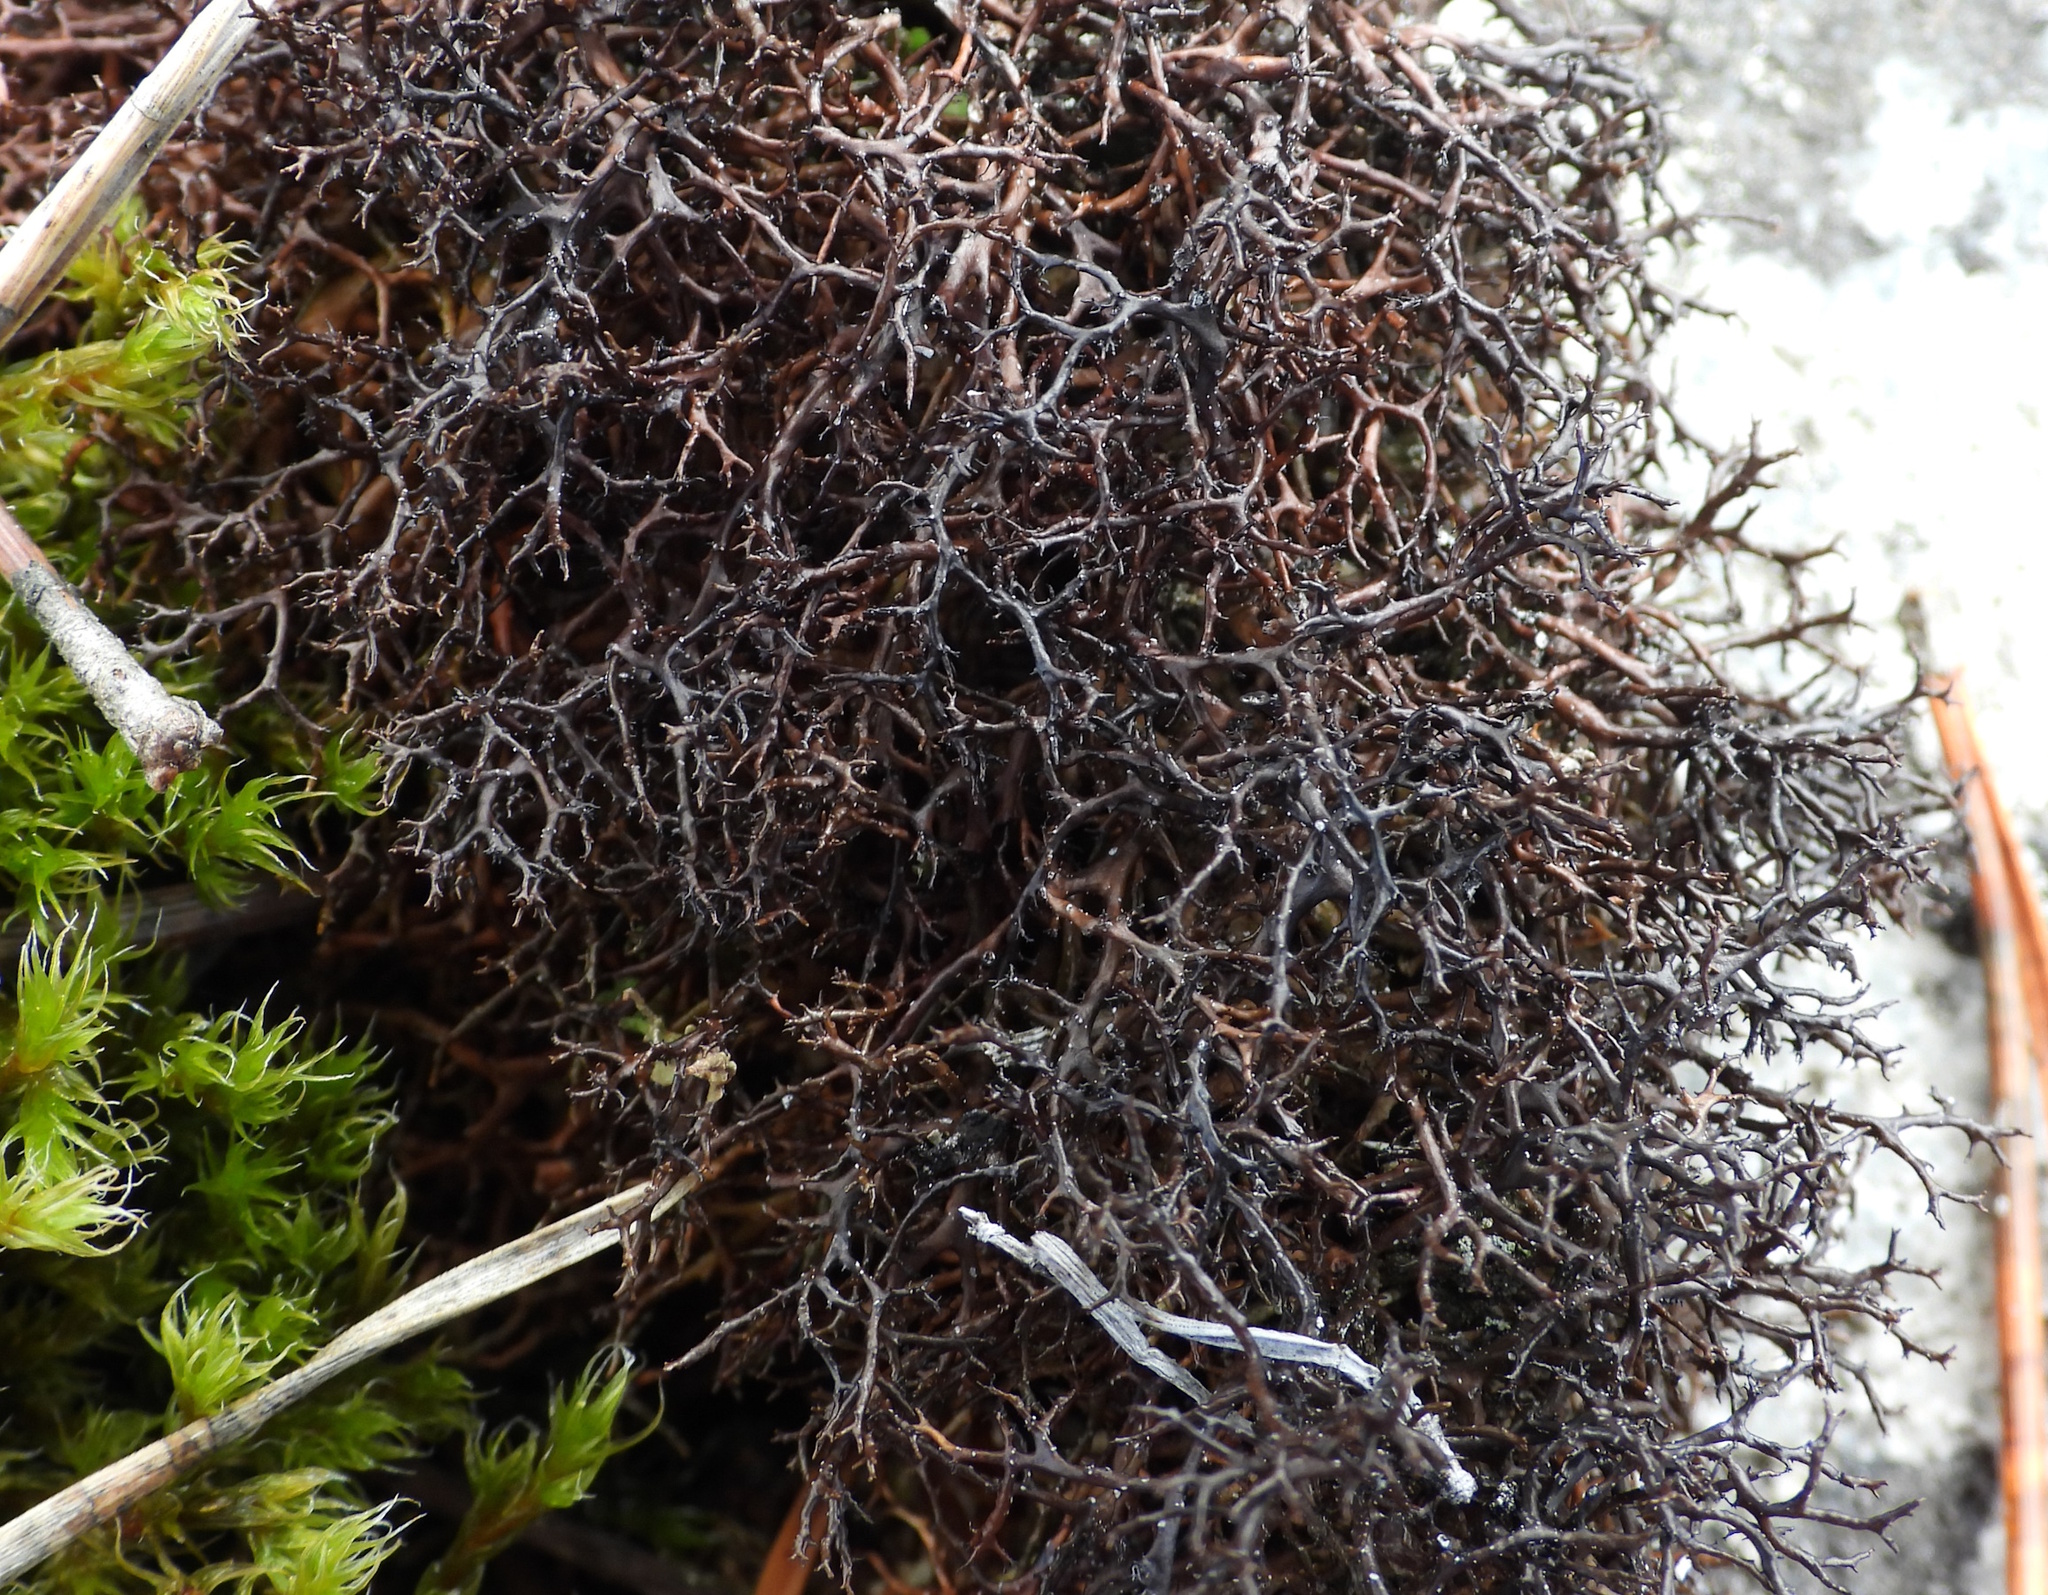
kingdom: Fungi
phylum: Ascomycota
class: Lecanoromycetes
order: Lecanorales
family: Parmeliaceae
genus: Cetraria
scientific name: Cetraria muricata
